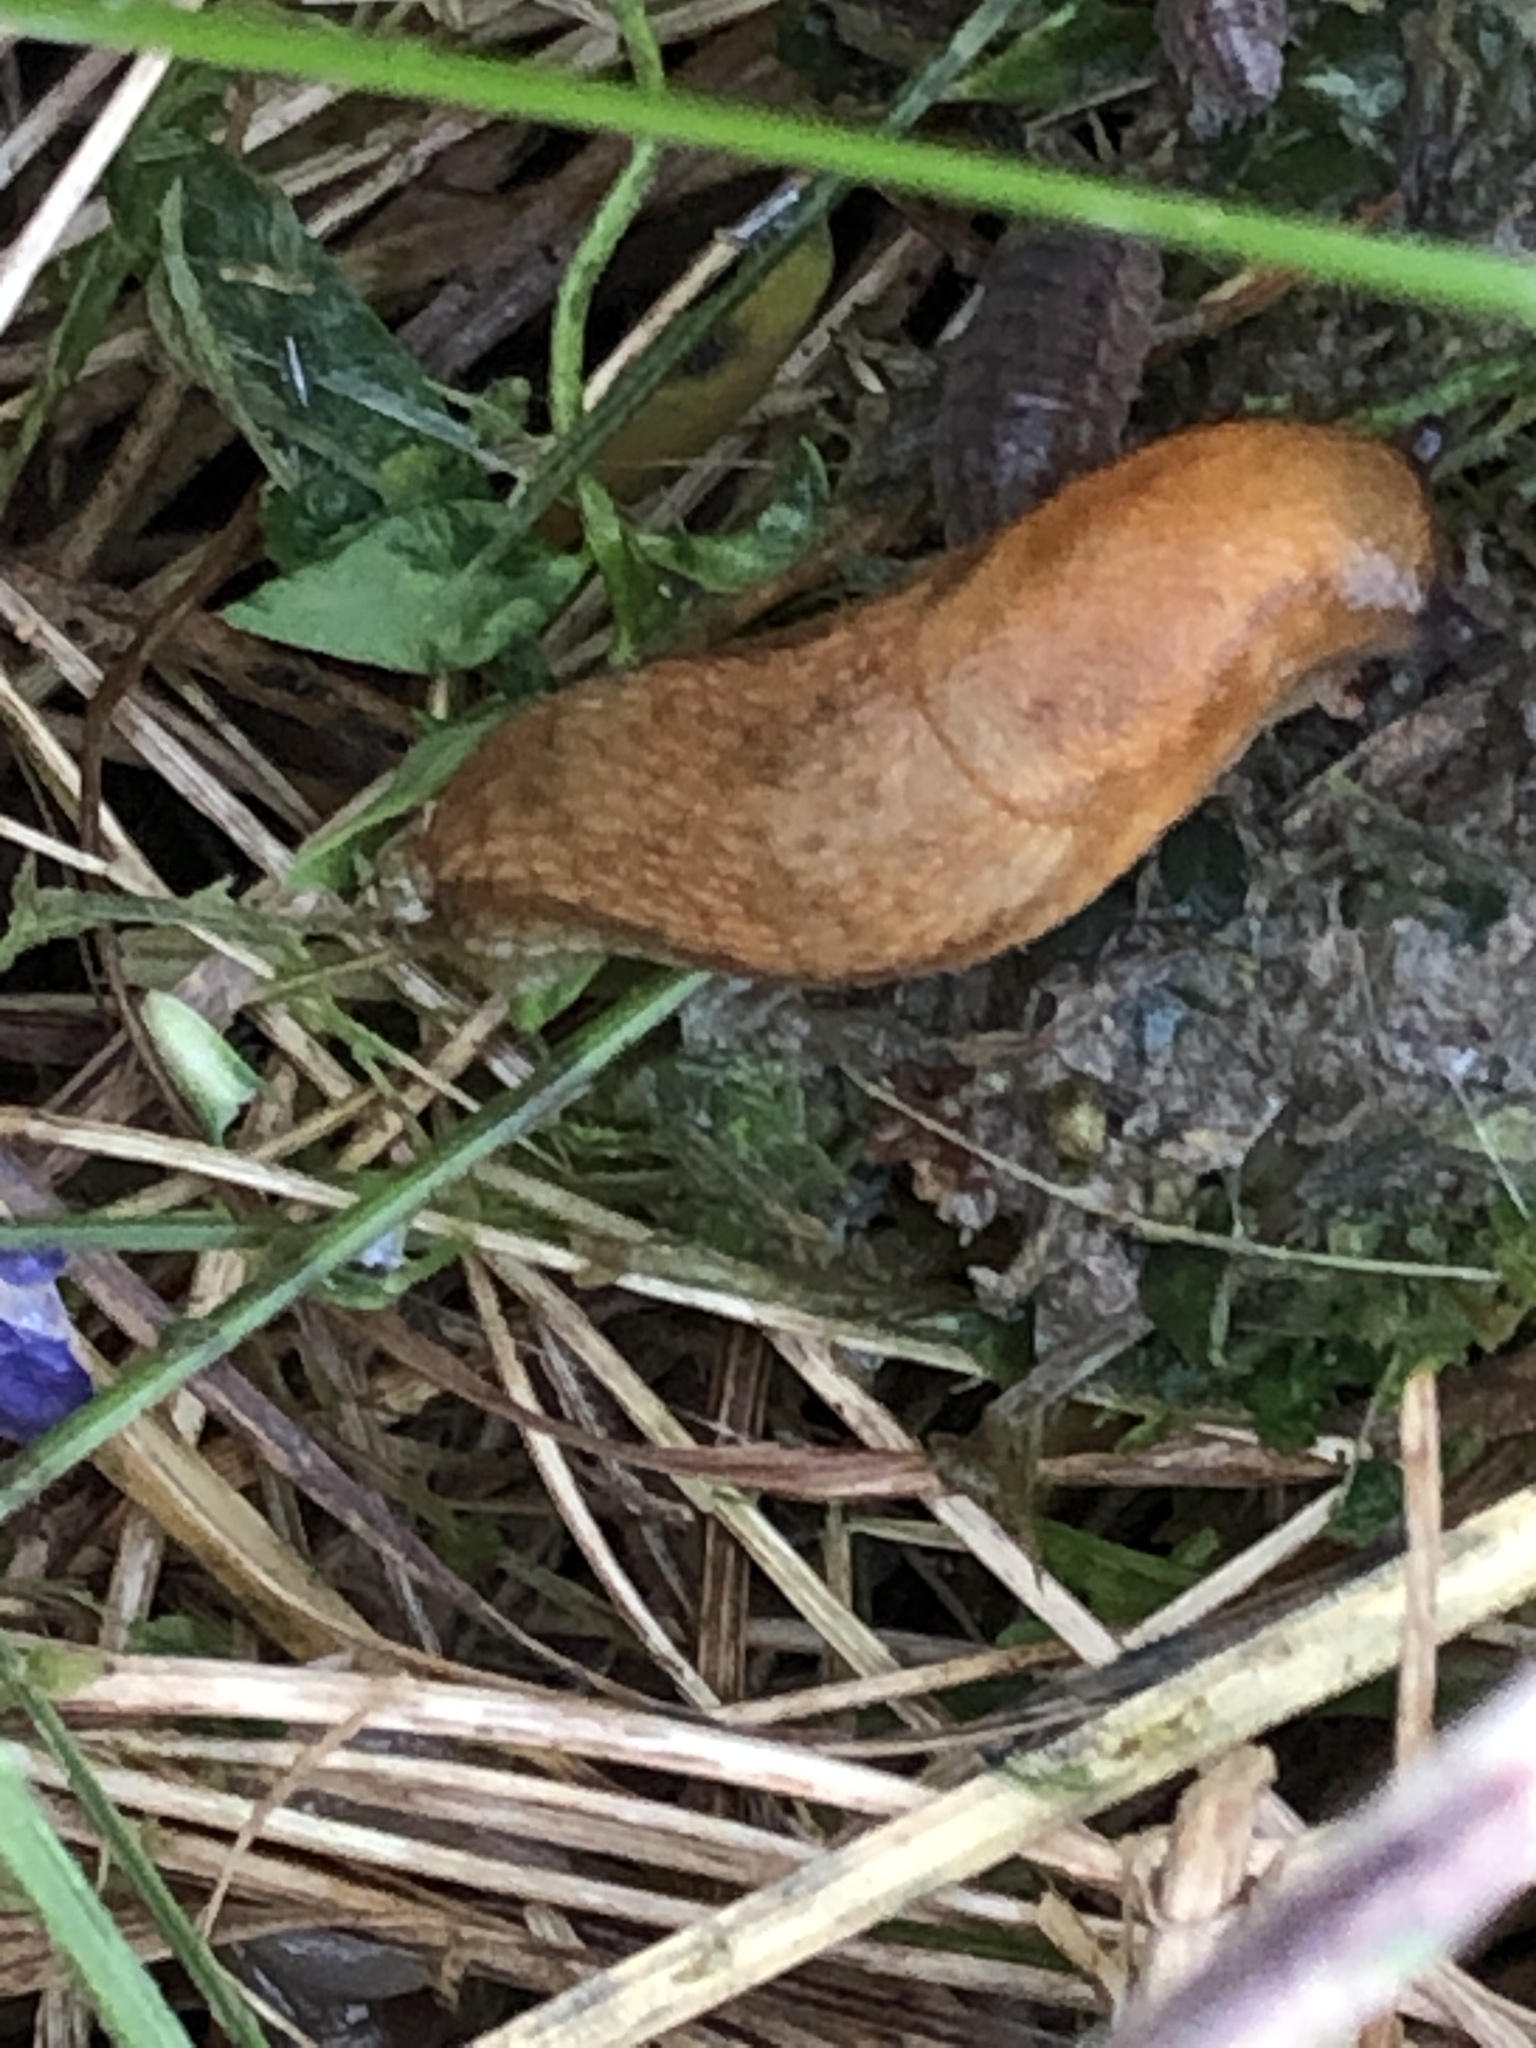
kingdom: Animalia
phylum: Mollusca
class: Gastropoda
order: Stylommatophora
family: Arionidae
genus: Arion
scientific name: Arion subfuscus
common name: Dusky arion
